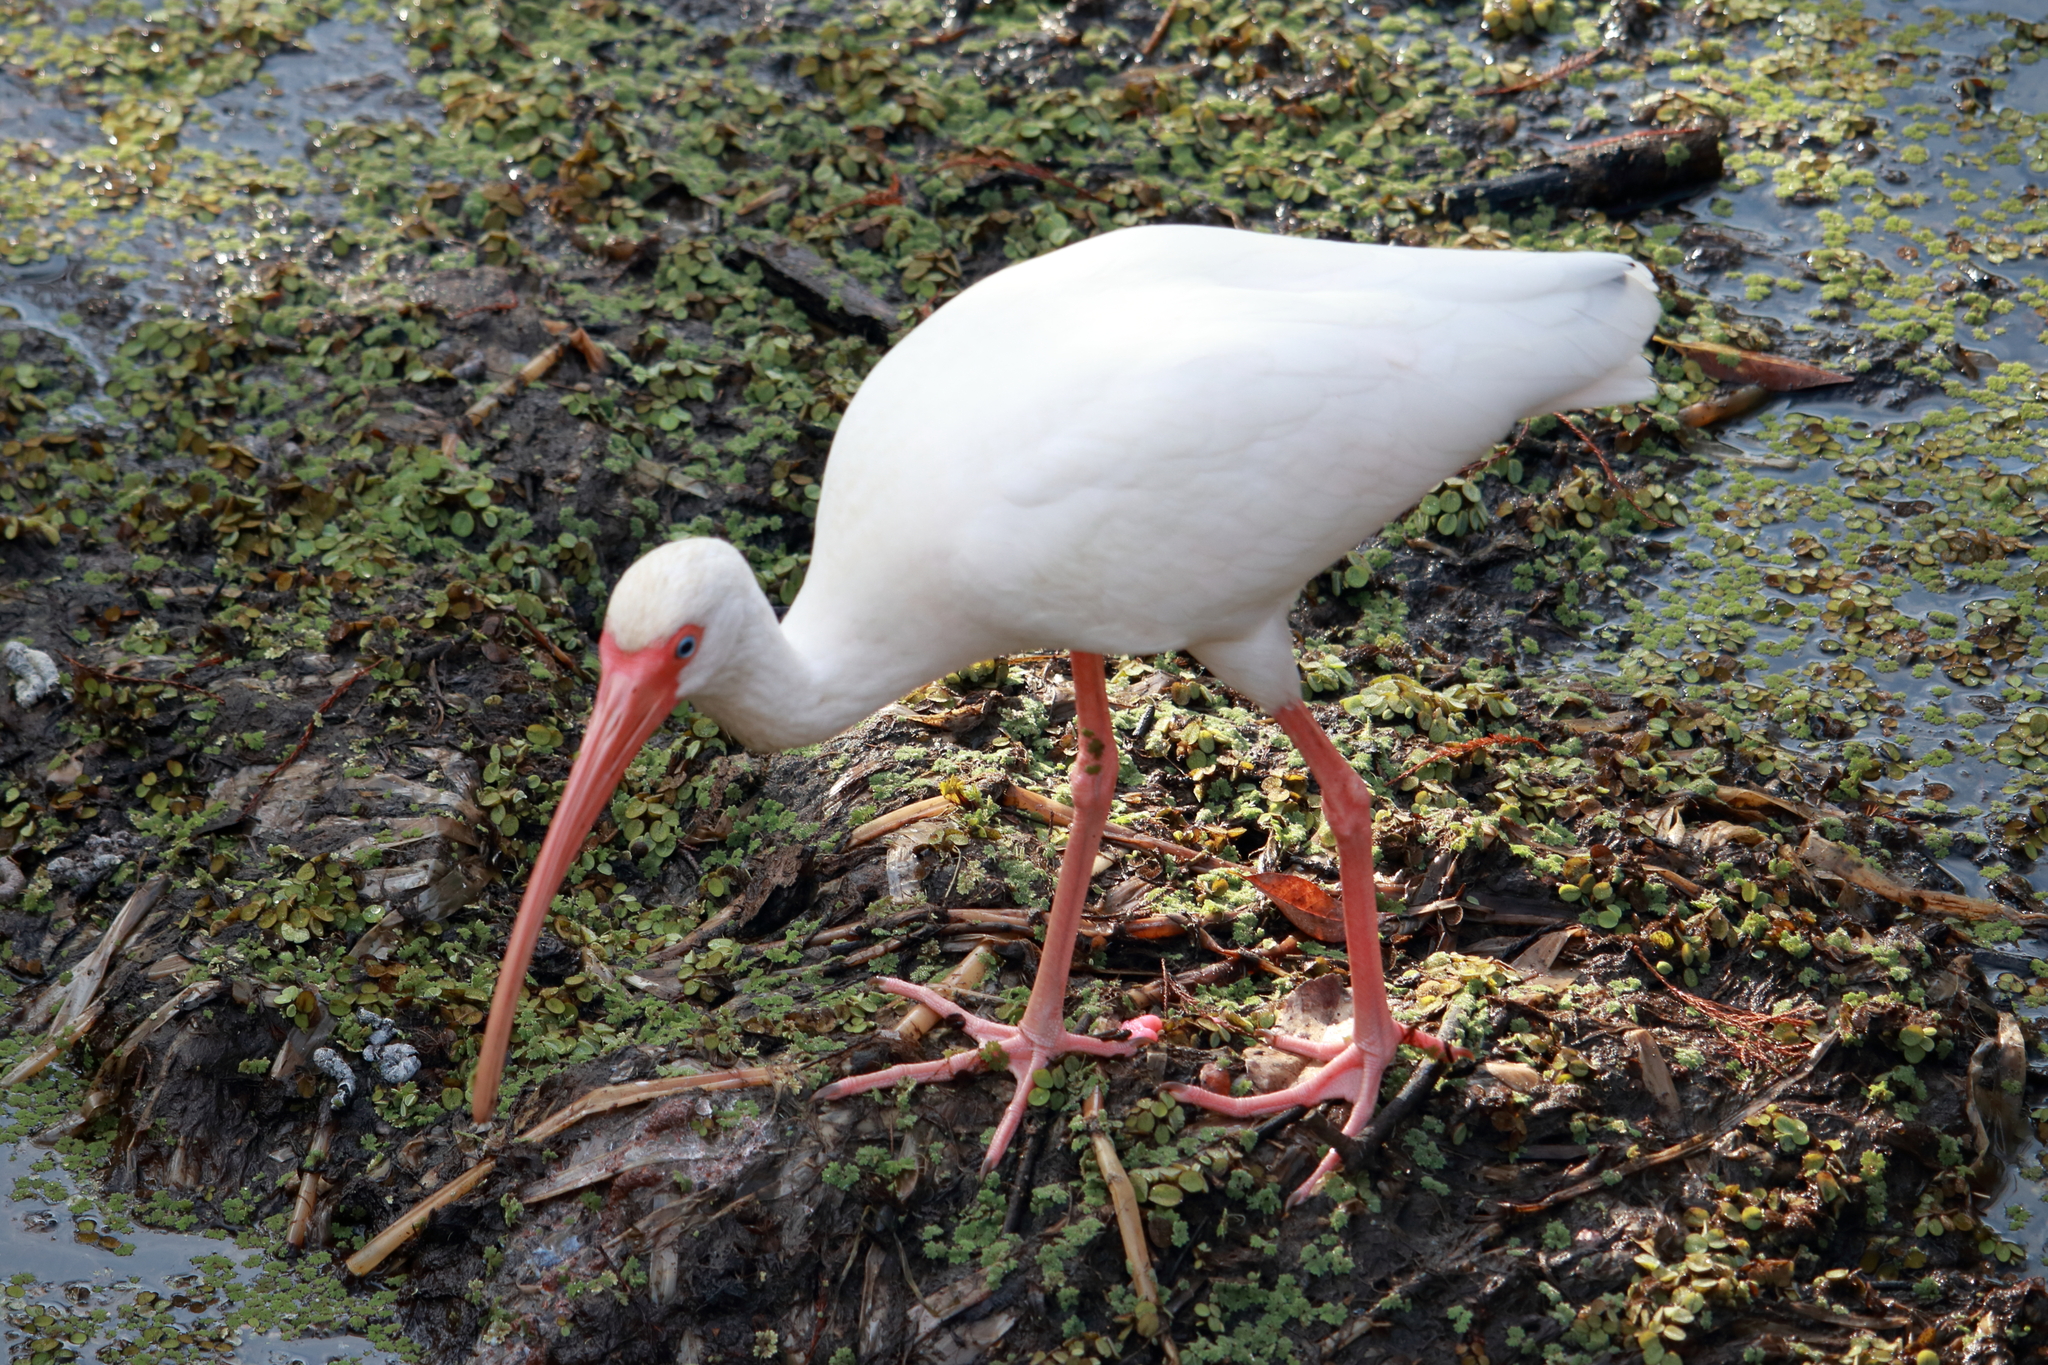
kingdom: Animalia
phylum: Chordata
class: Aves
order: Pelecaniformes
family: Threskiornithidae
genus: Eudocimus
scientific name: Eudocimus albus
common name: White ibis
